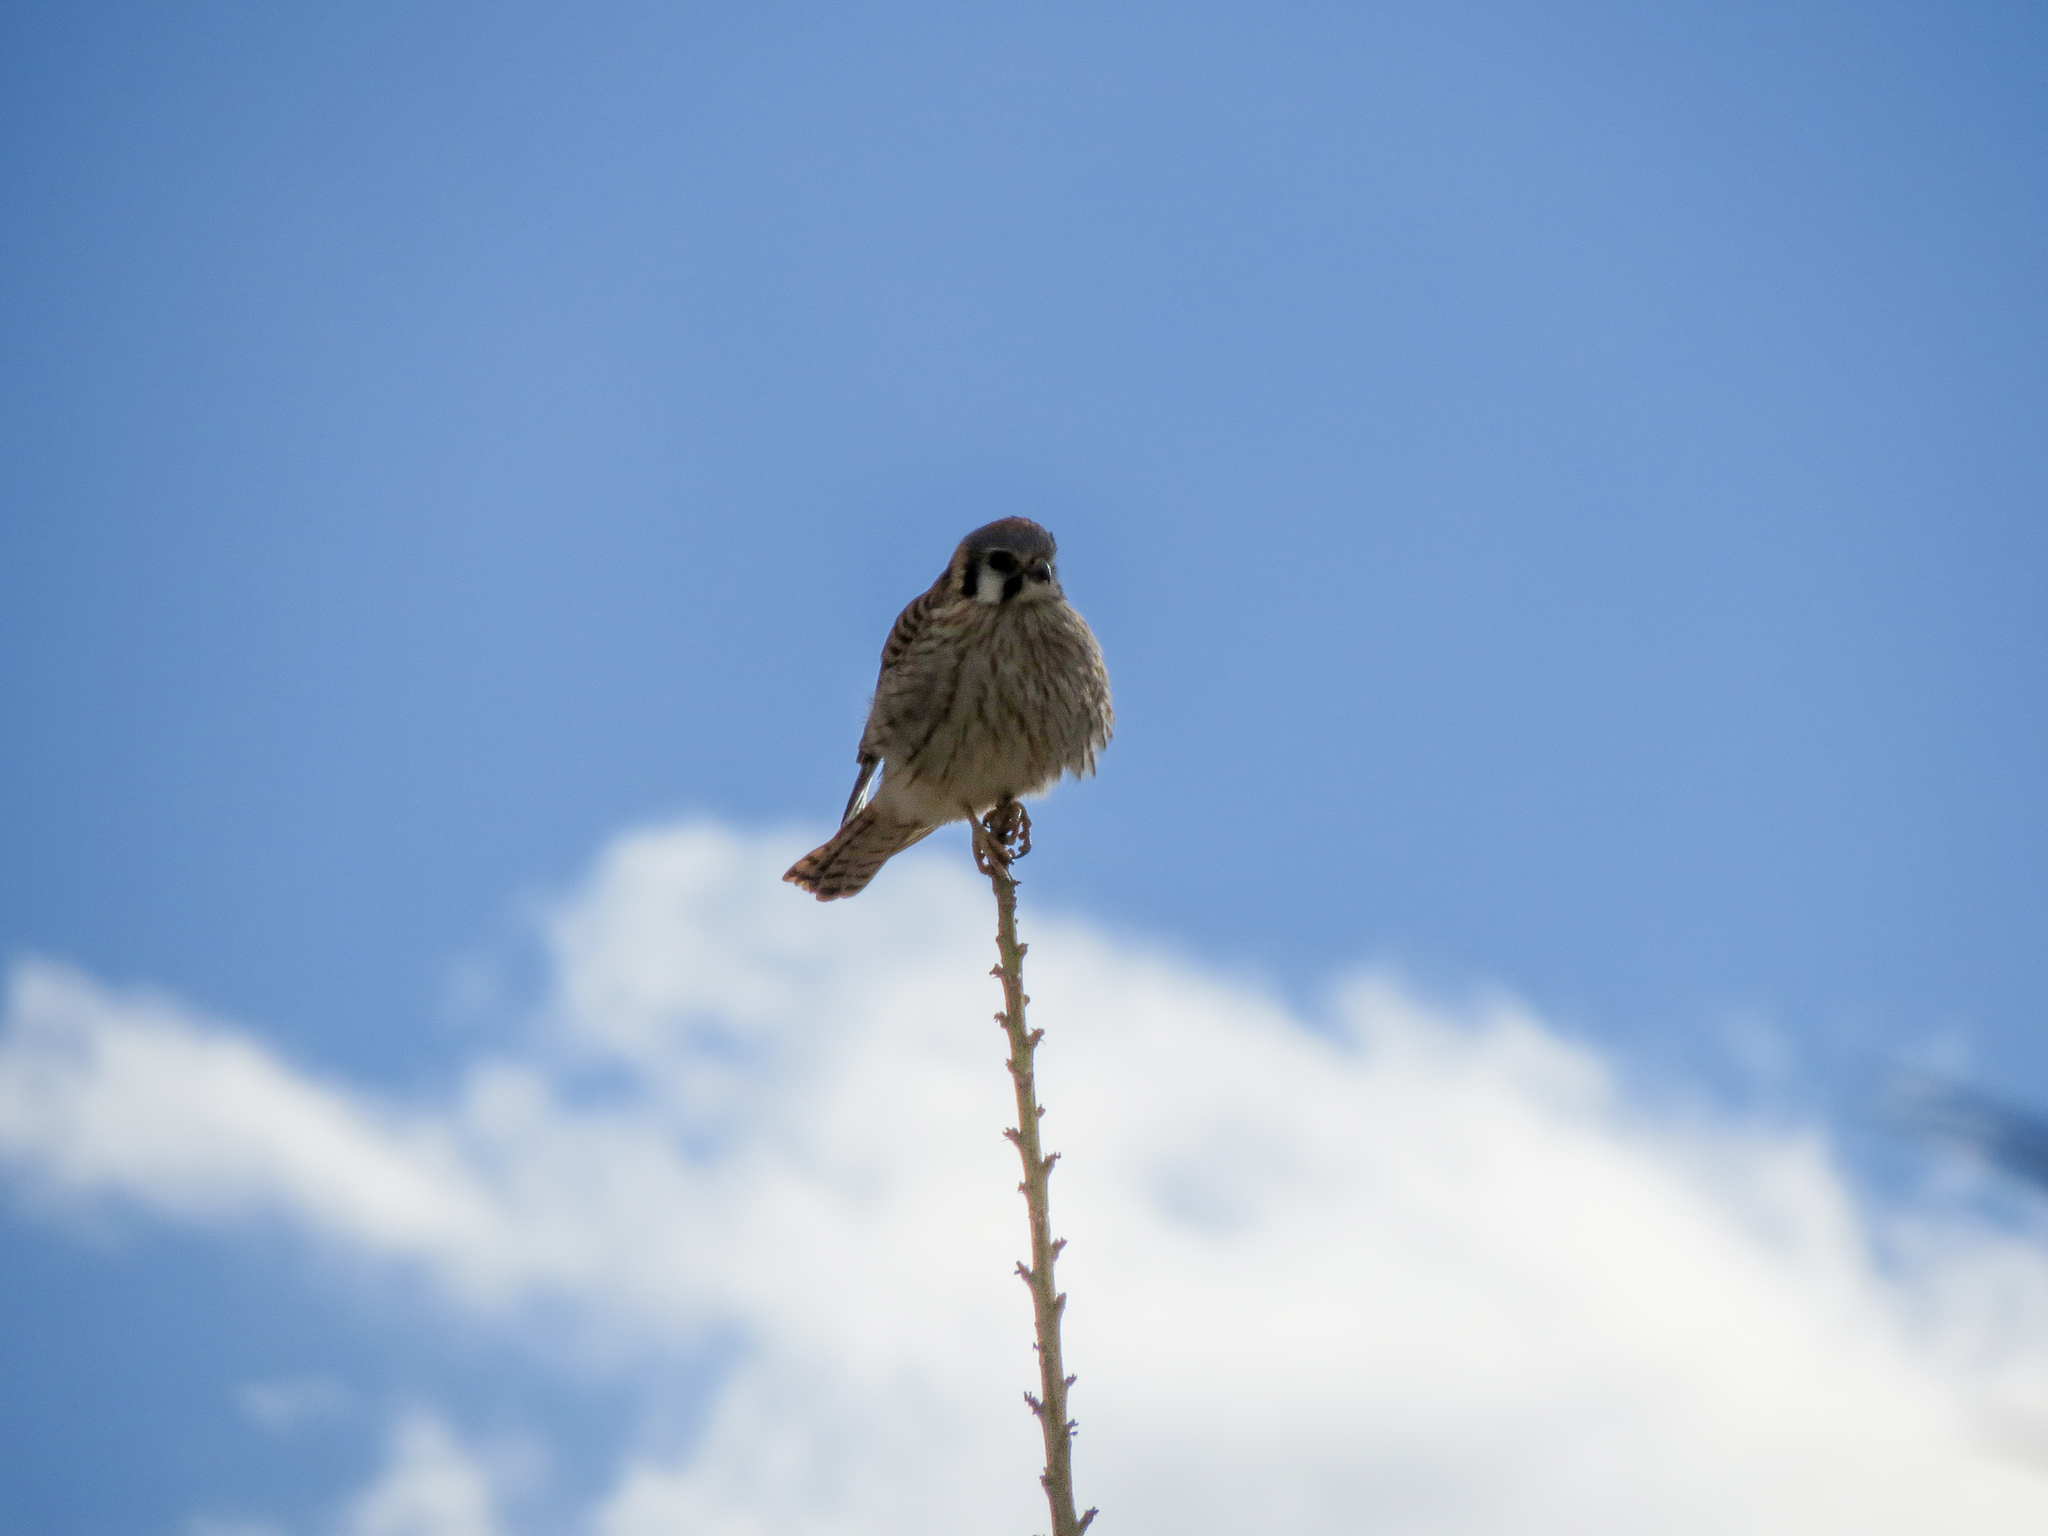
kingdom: Animalia
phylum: Chordata
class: Aves
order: Falconiformes
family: Falconidae
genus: Falco
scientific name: Falco sparverius
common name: American kestrel
